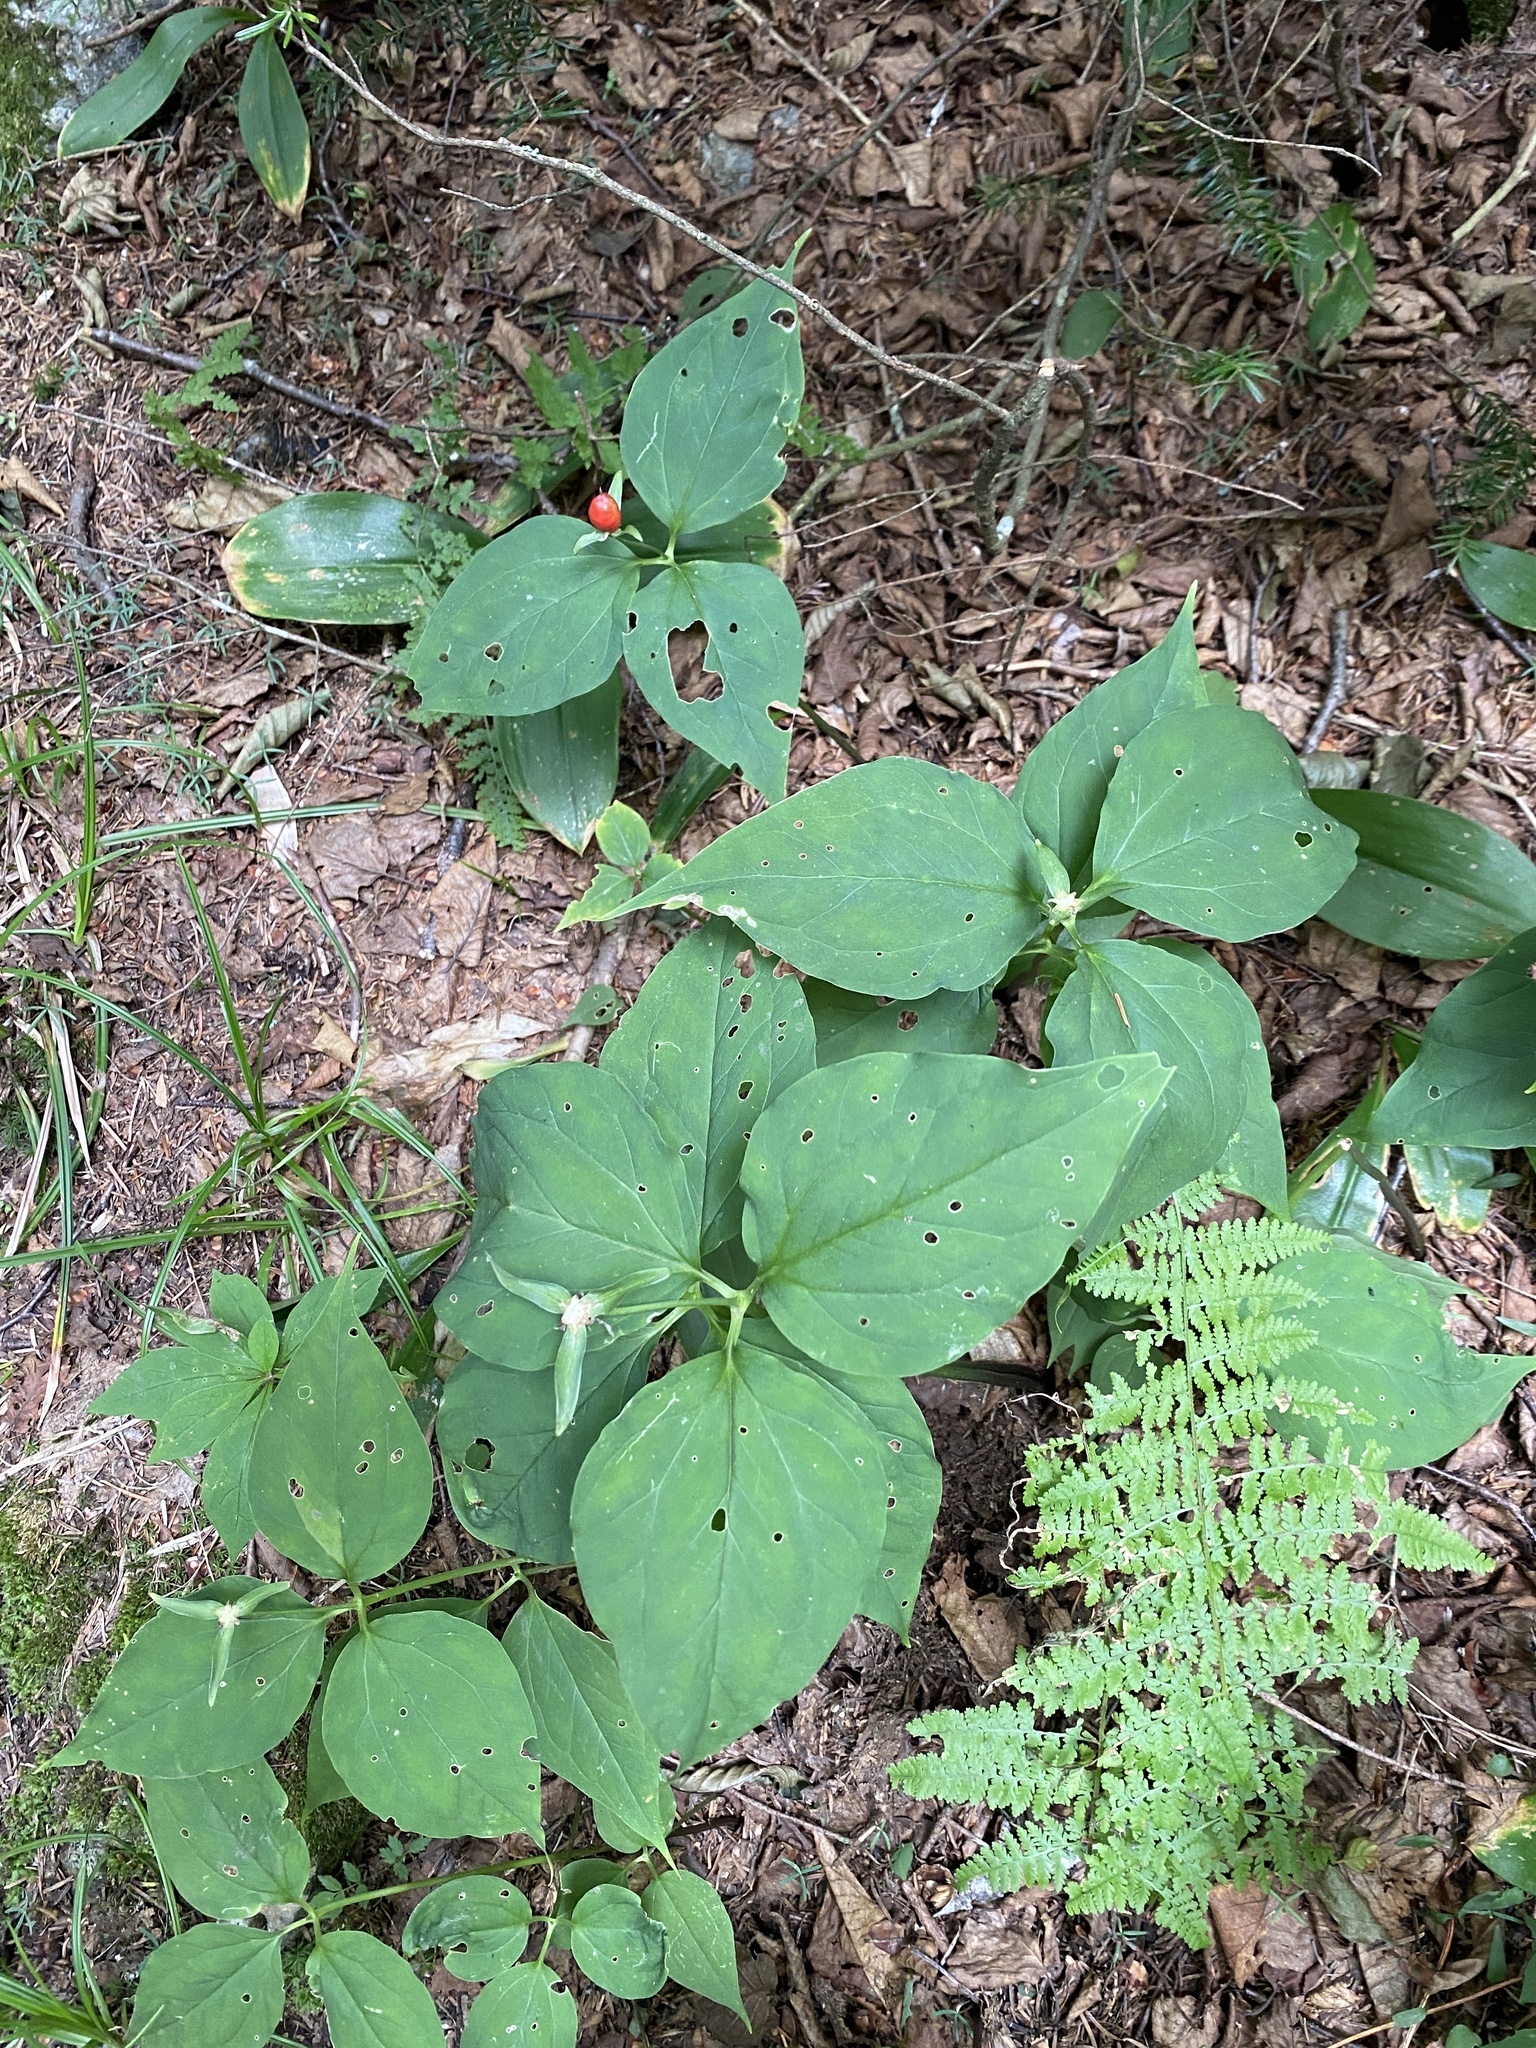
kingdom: Plantae
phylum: Tracheophyta
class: Liliopsida
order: Liliales
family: Melanthiaceae
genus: Trillium
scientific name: Trillium undulatum
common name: Paint trillium
